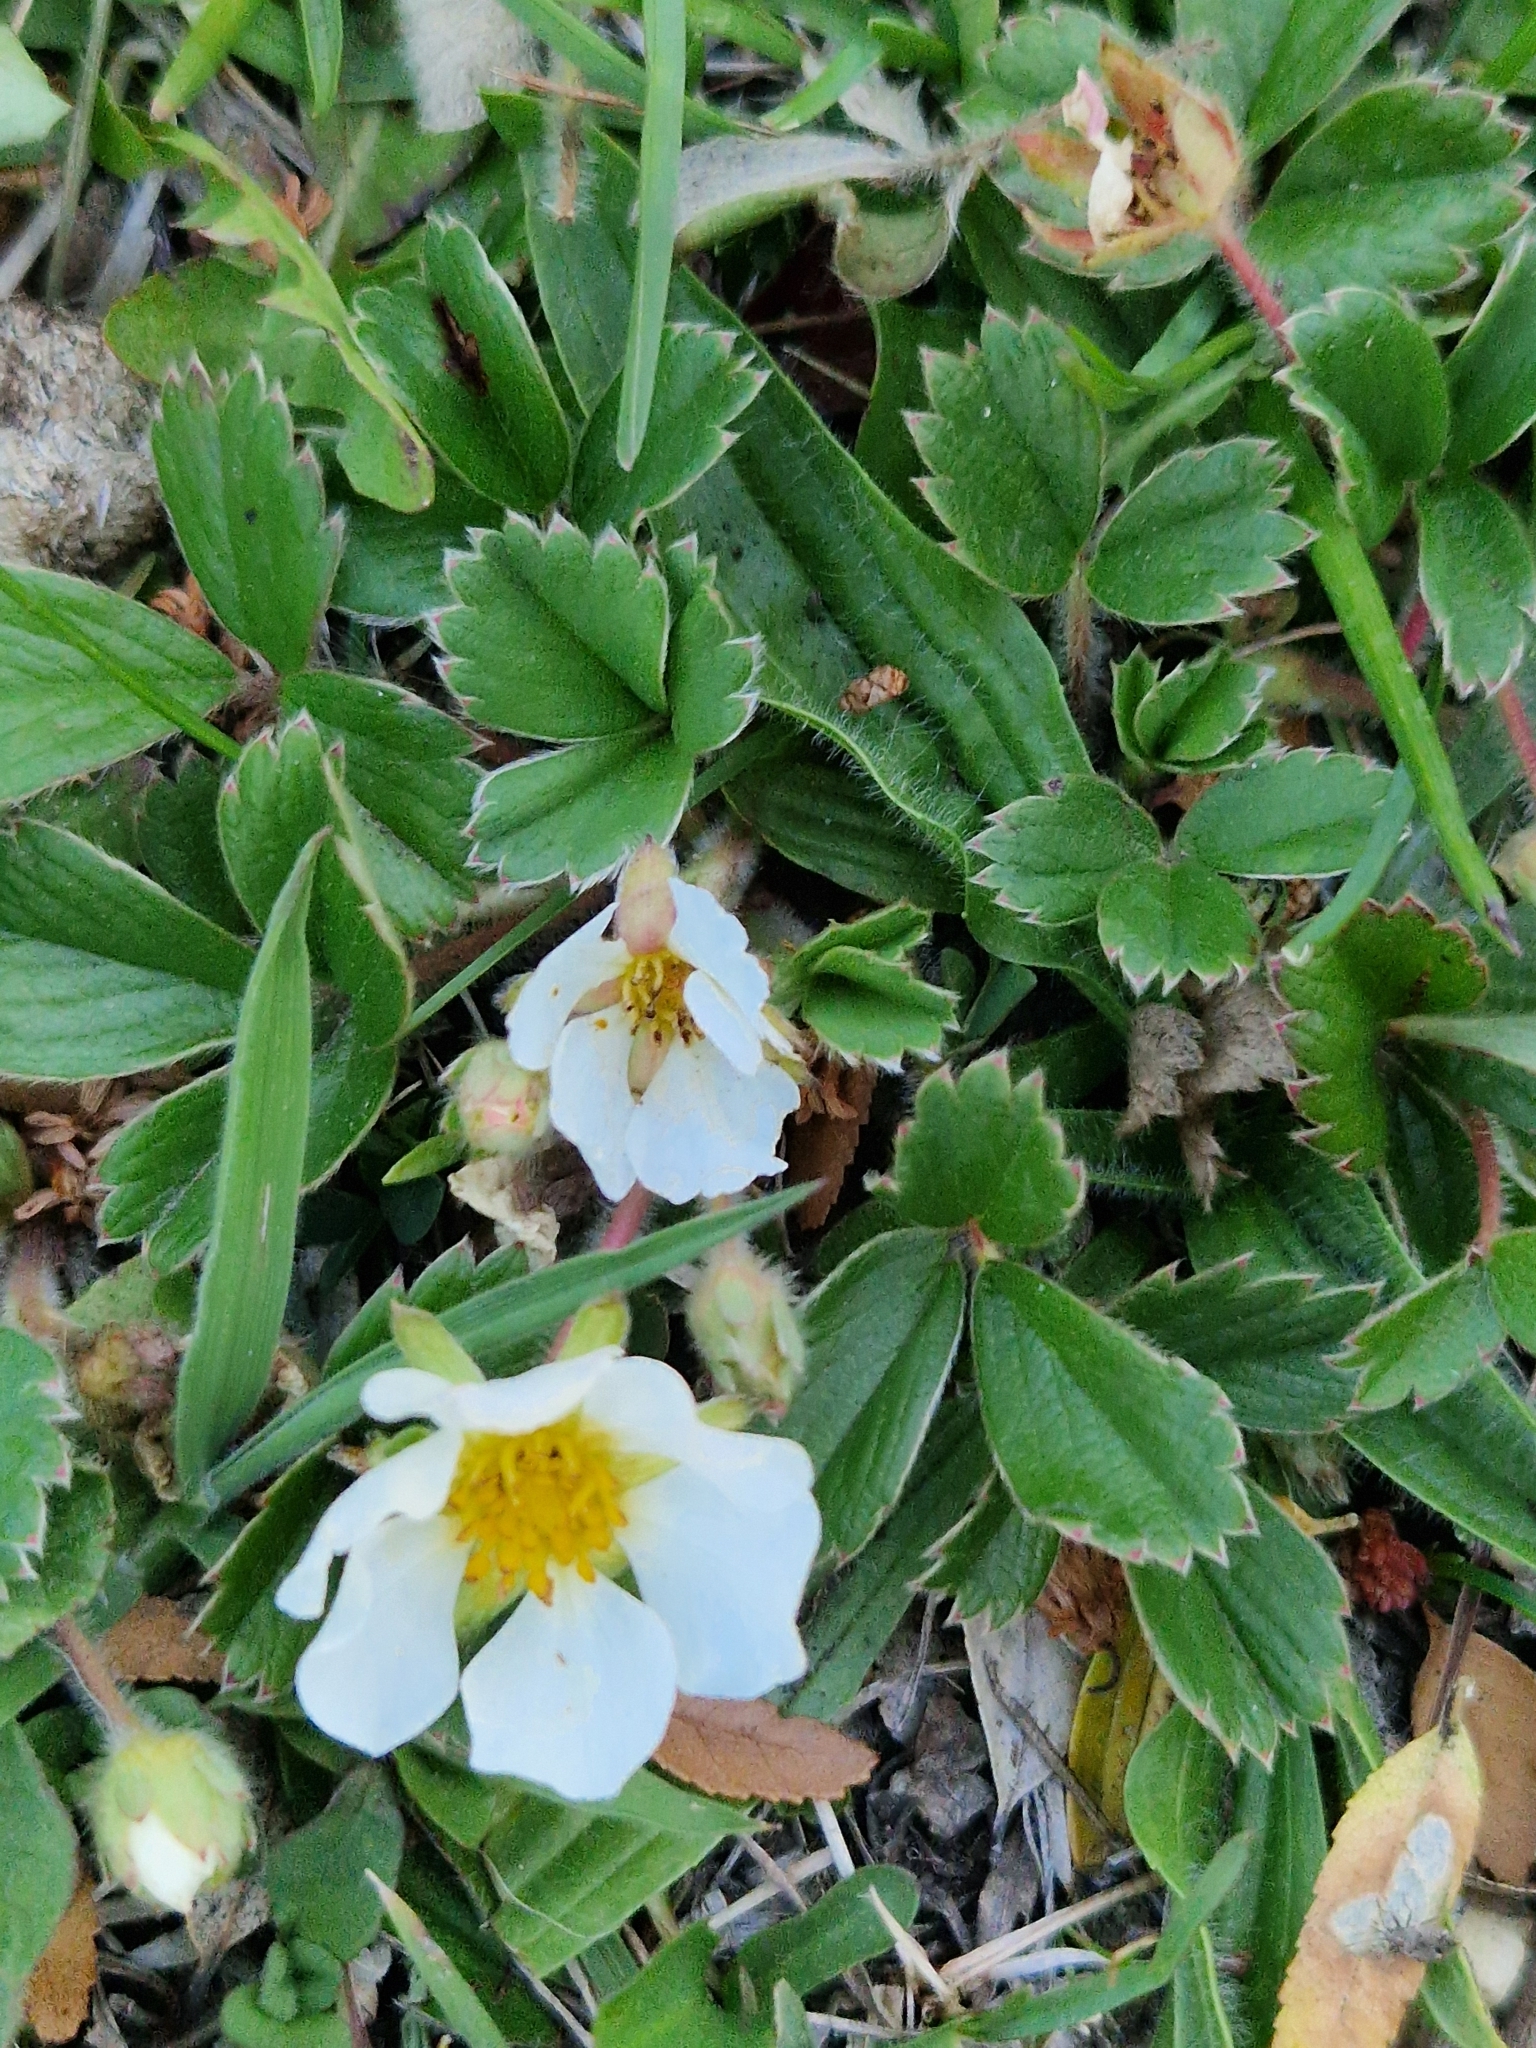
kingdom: Plantae
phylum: Tracheophyta
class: Magnoliopsida
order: Rosales
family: Rosaceae
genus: Fragaria
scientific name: Fragaria chiloensis
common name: Beach strawberry
